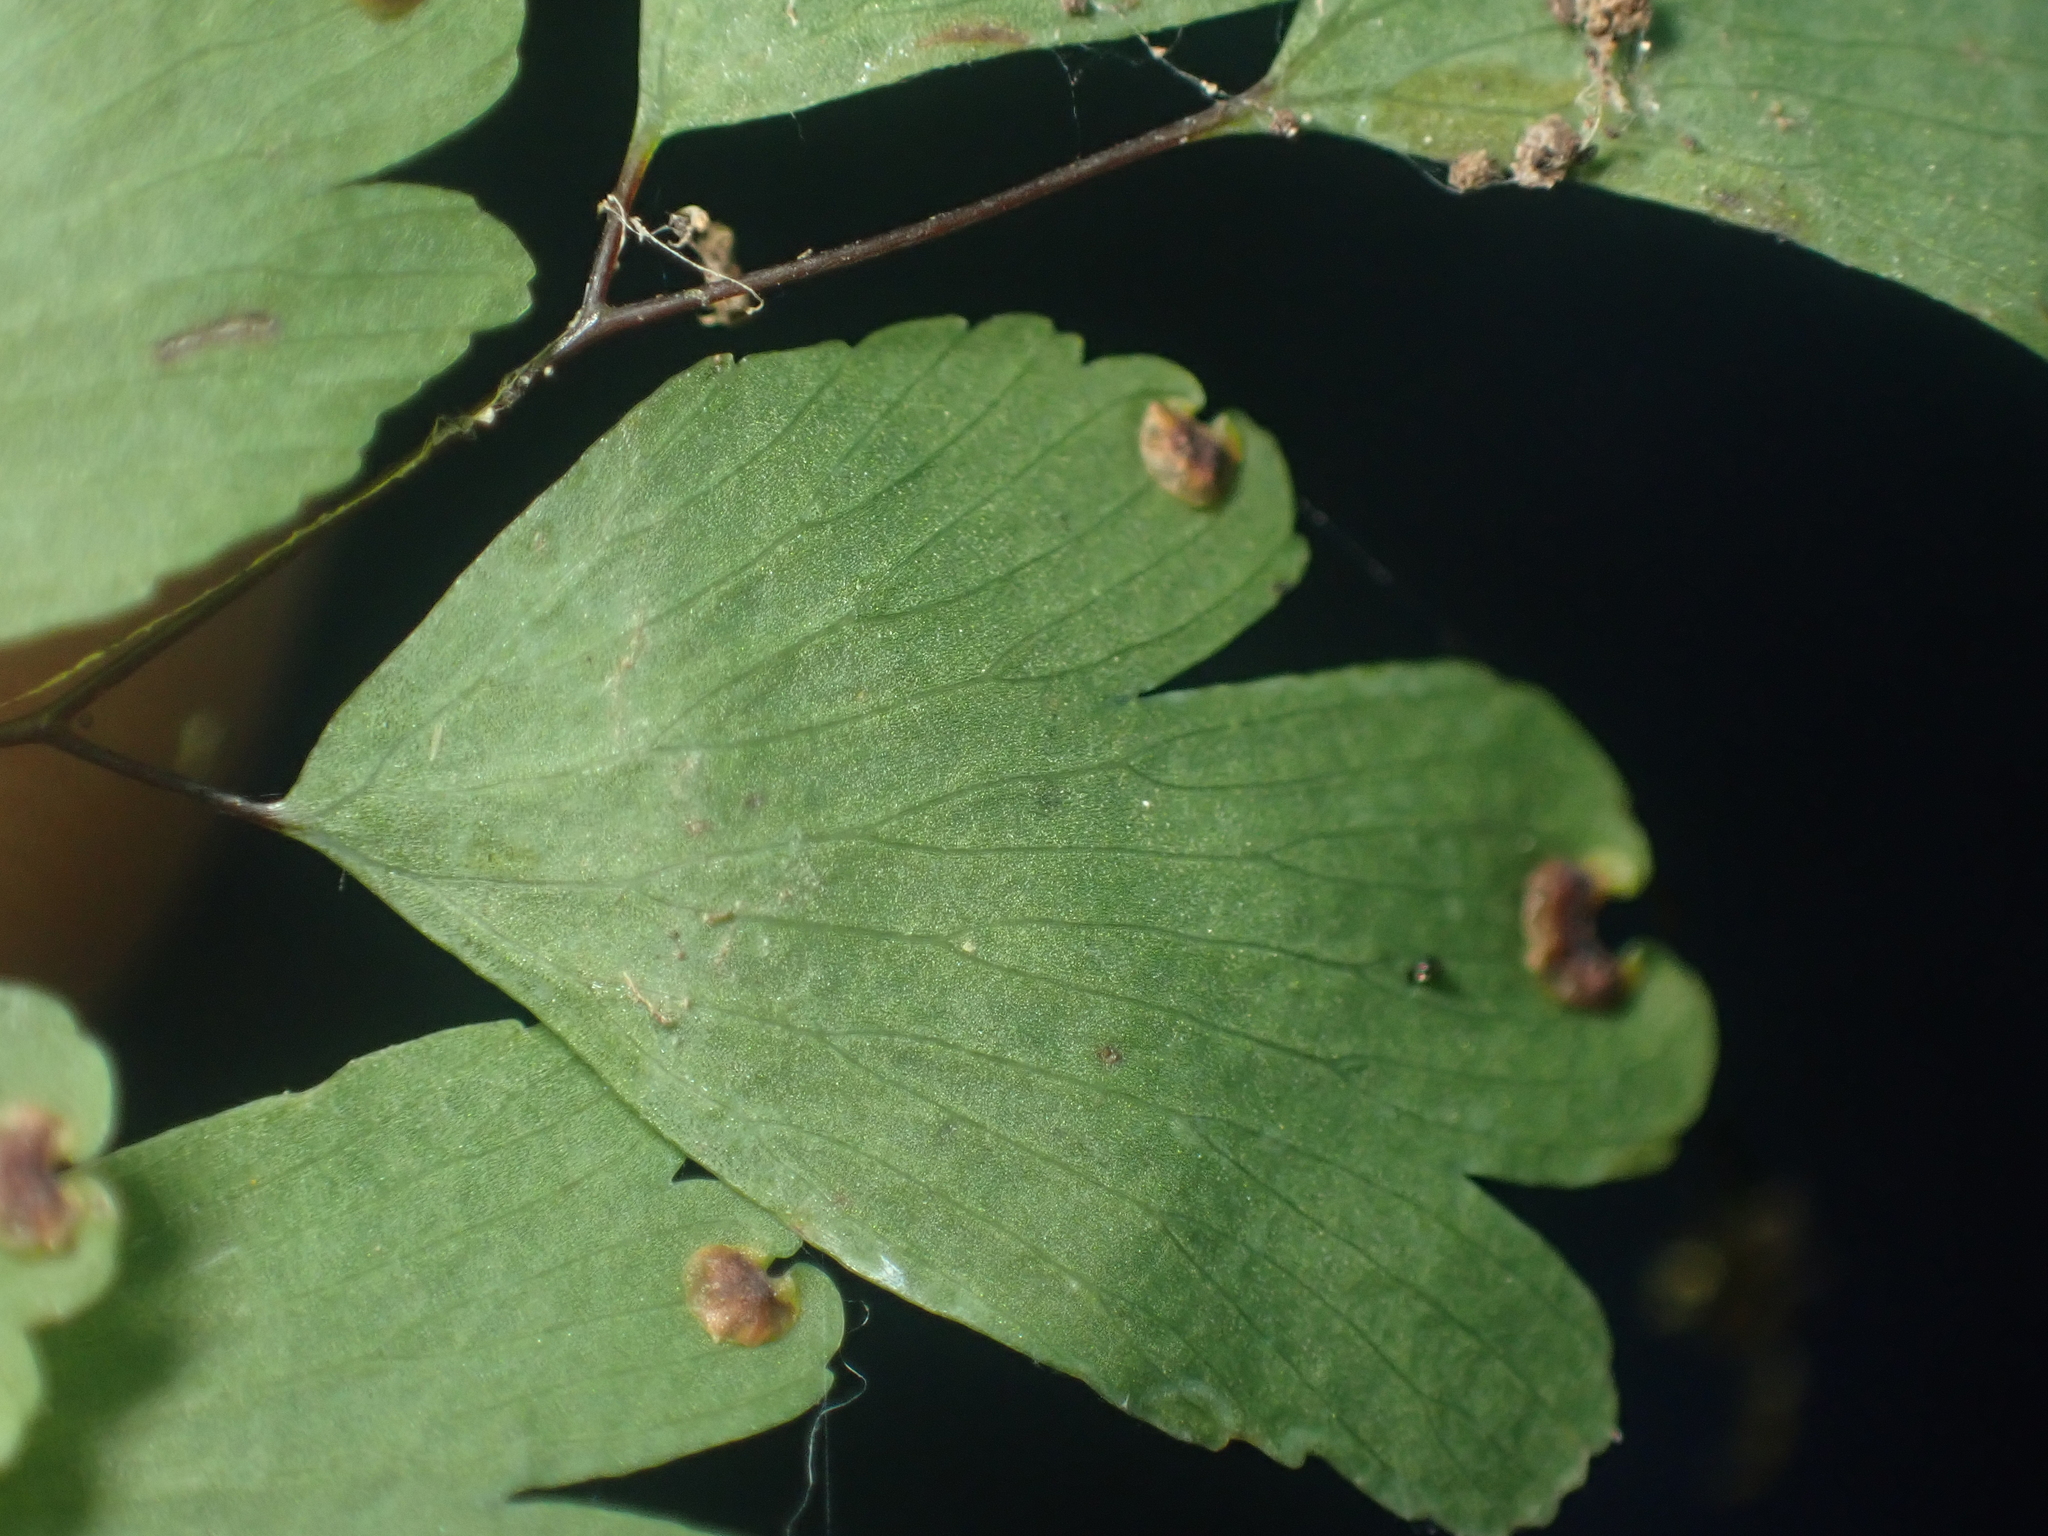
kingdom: Plantae
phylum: Tracheophyta
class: Polypodiopsida
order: Polypodiales
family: Pteridaceae
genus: Adiantum
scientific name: Adiantum raddianum
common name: Delta maidenhair fern
